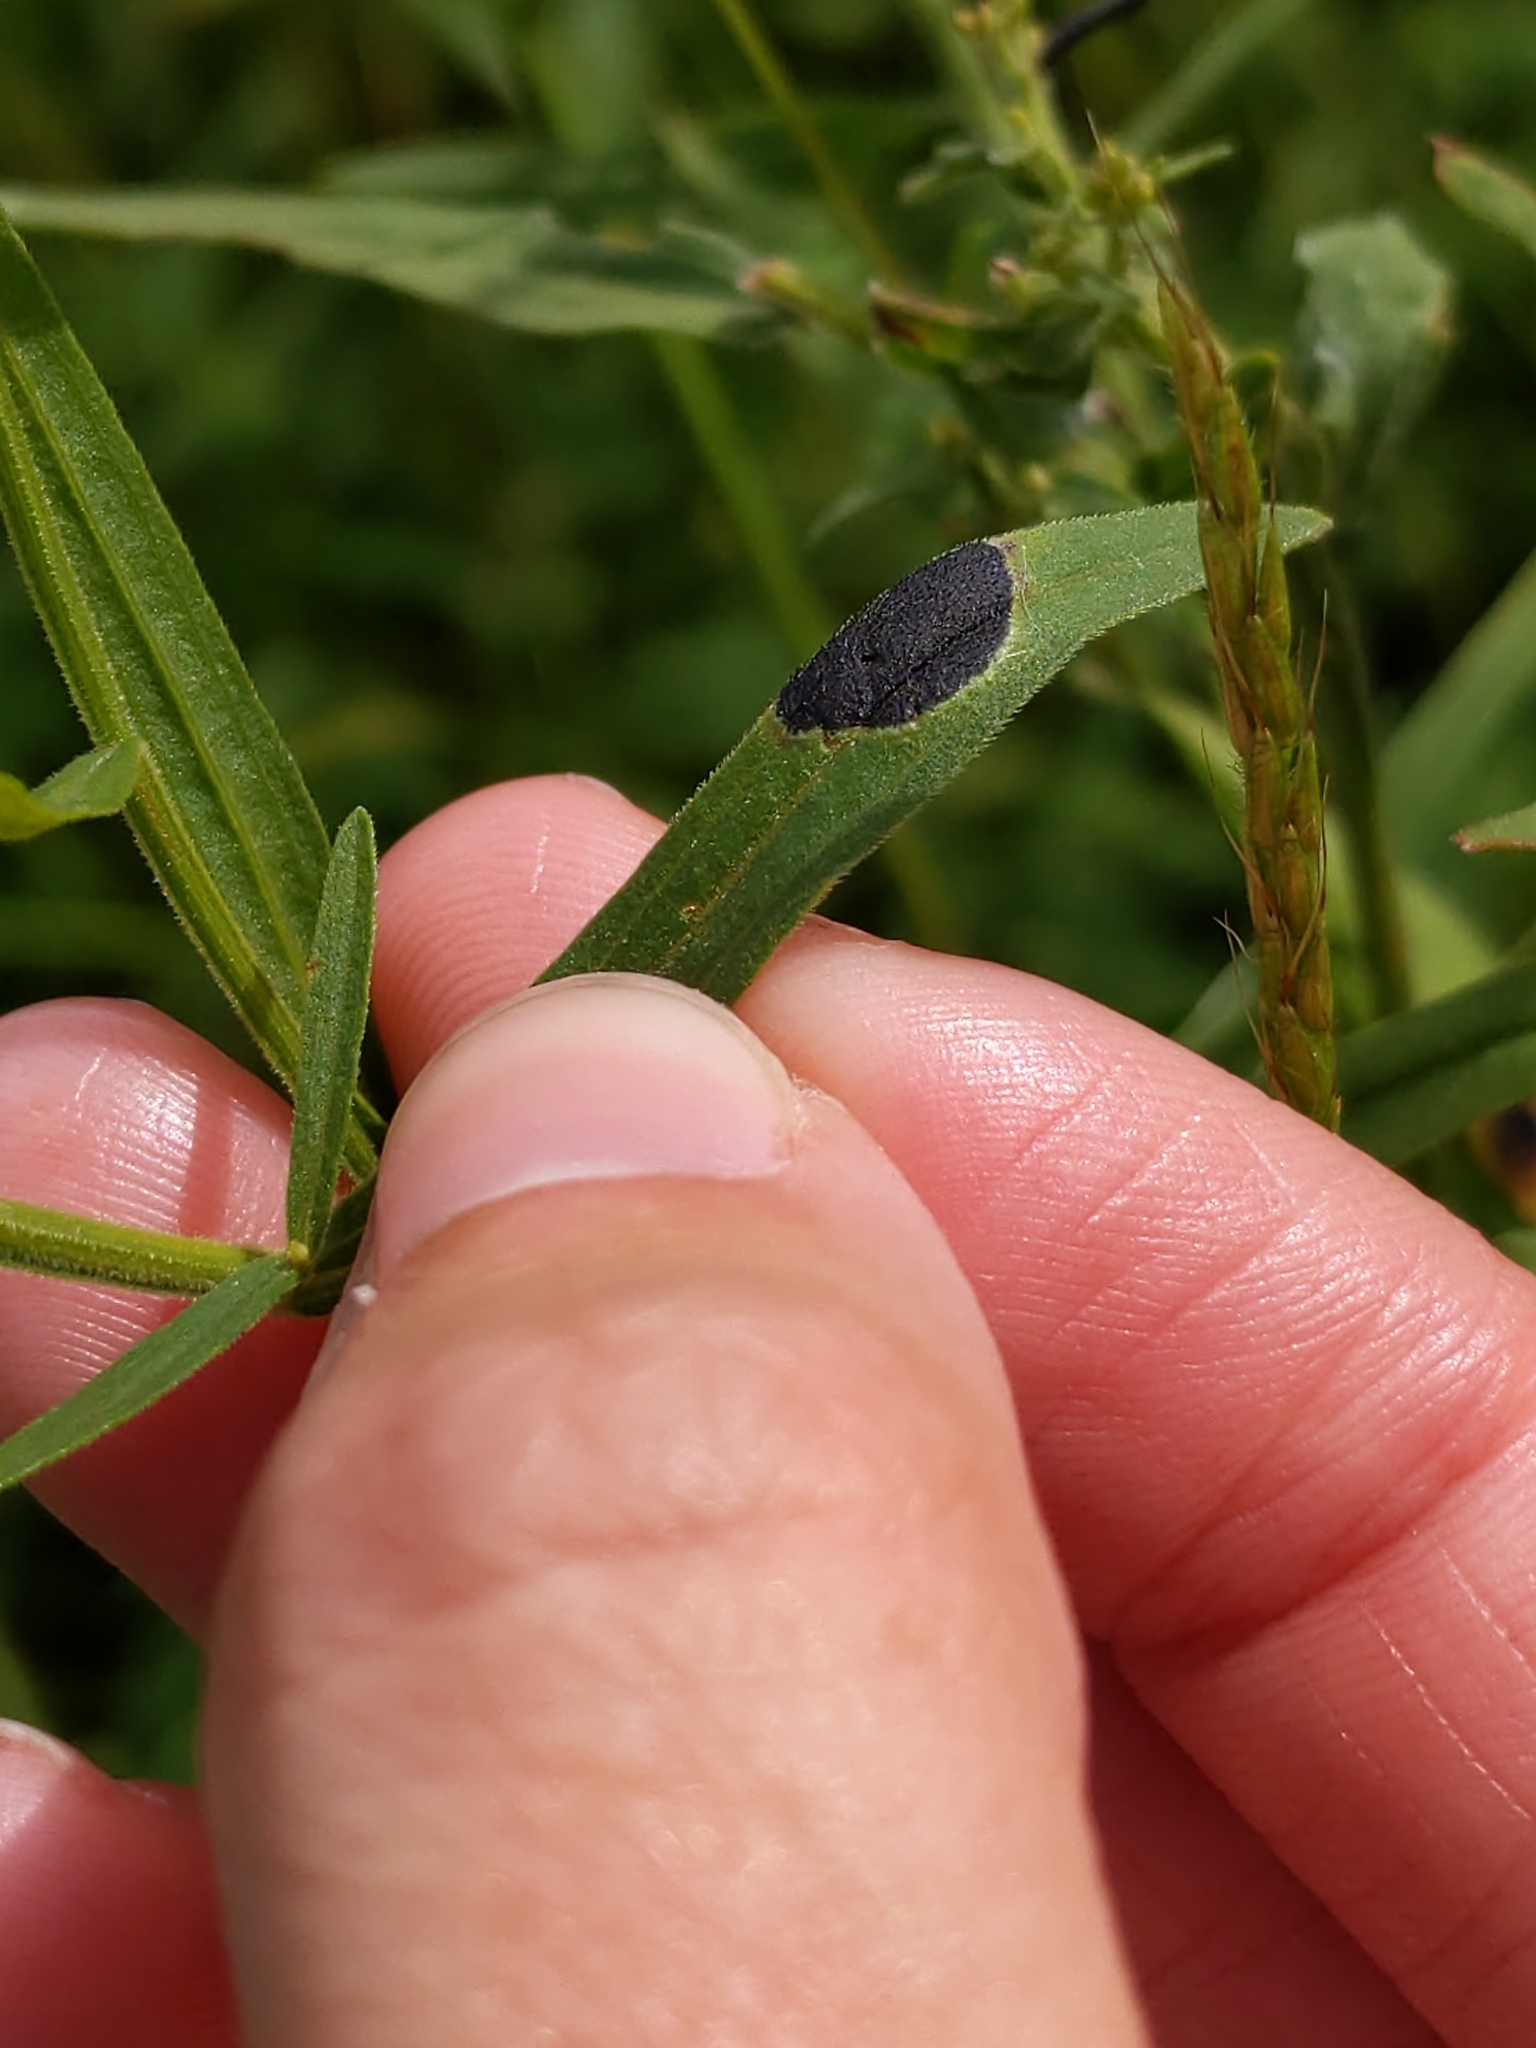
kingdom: Animalia
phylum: Arthropoda
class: Insecta
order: Diptera
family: Cecidomyiidae
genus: Asteromyia
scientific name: Asteromyia euthamiae
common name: Euthamia leaf gall midge
